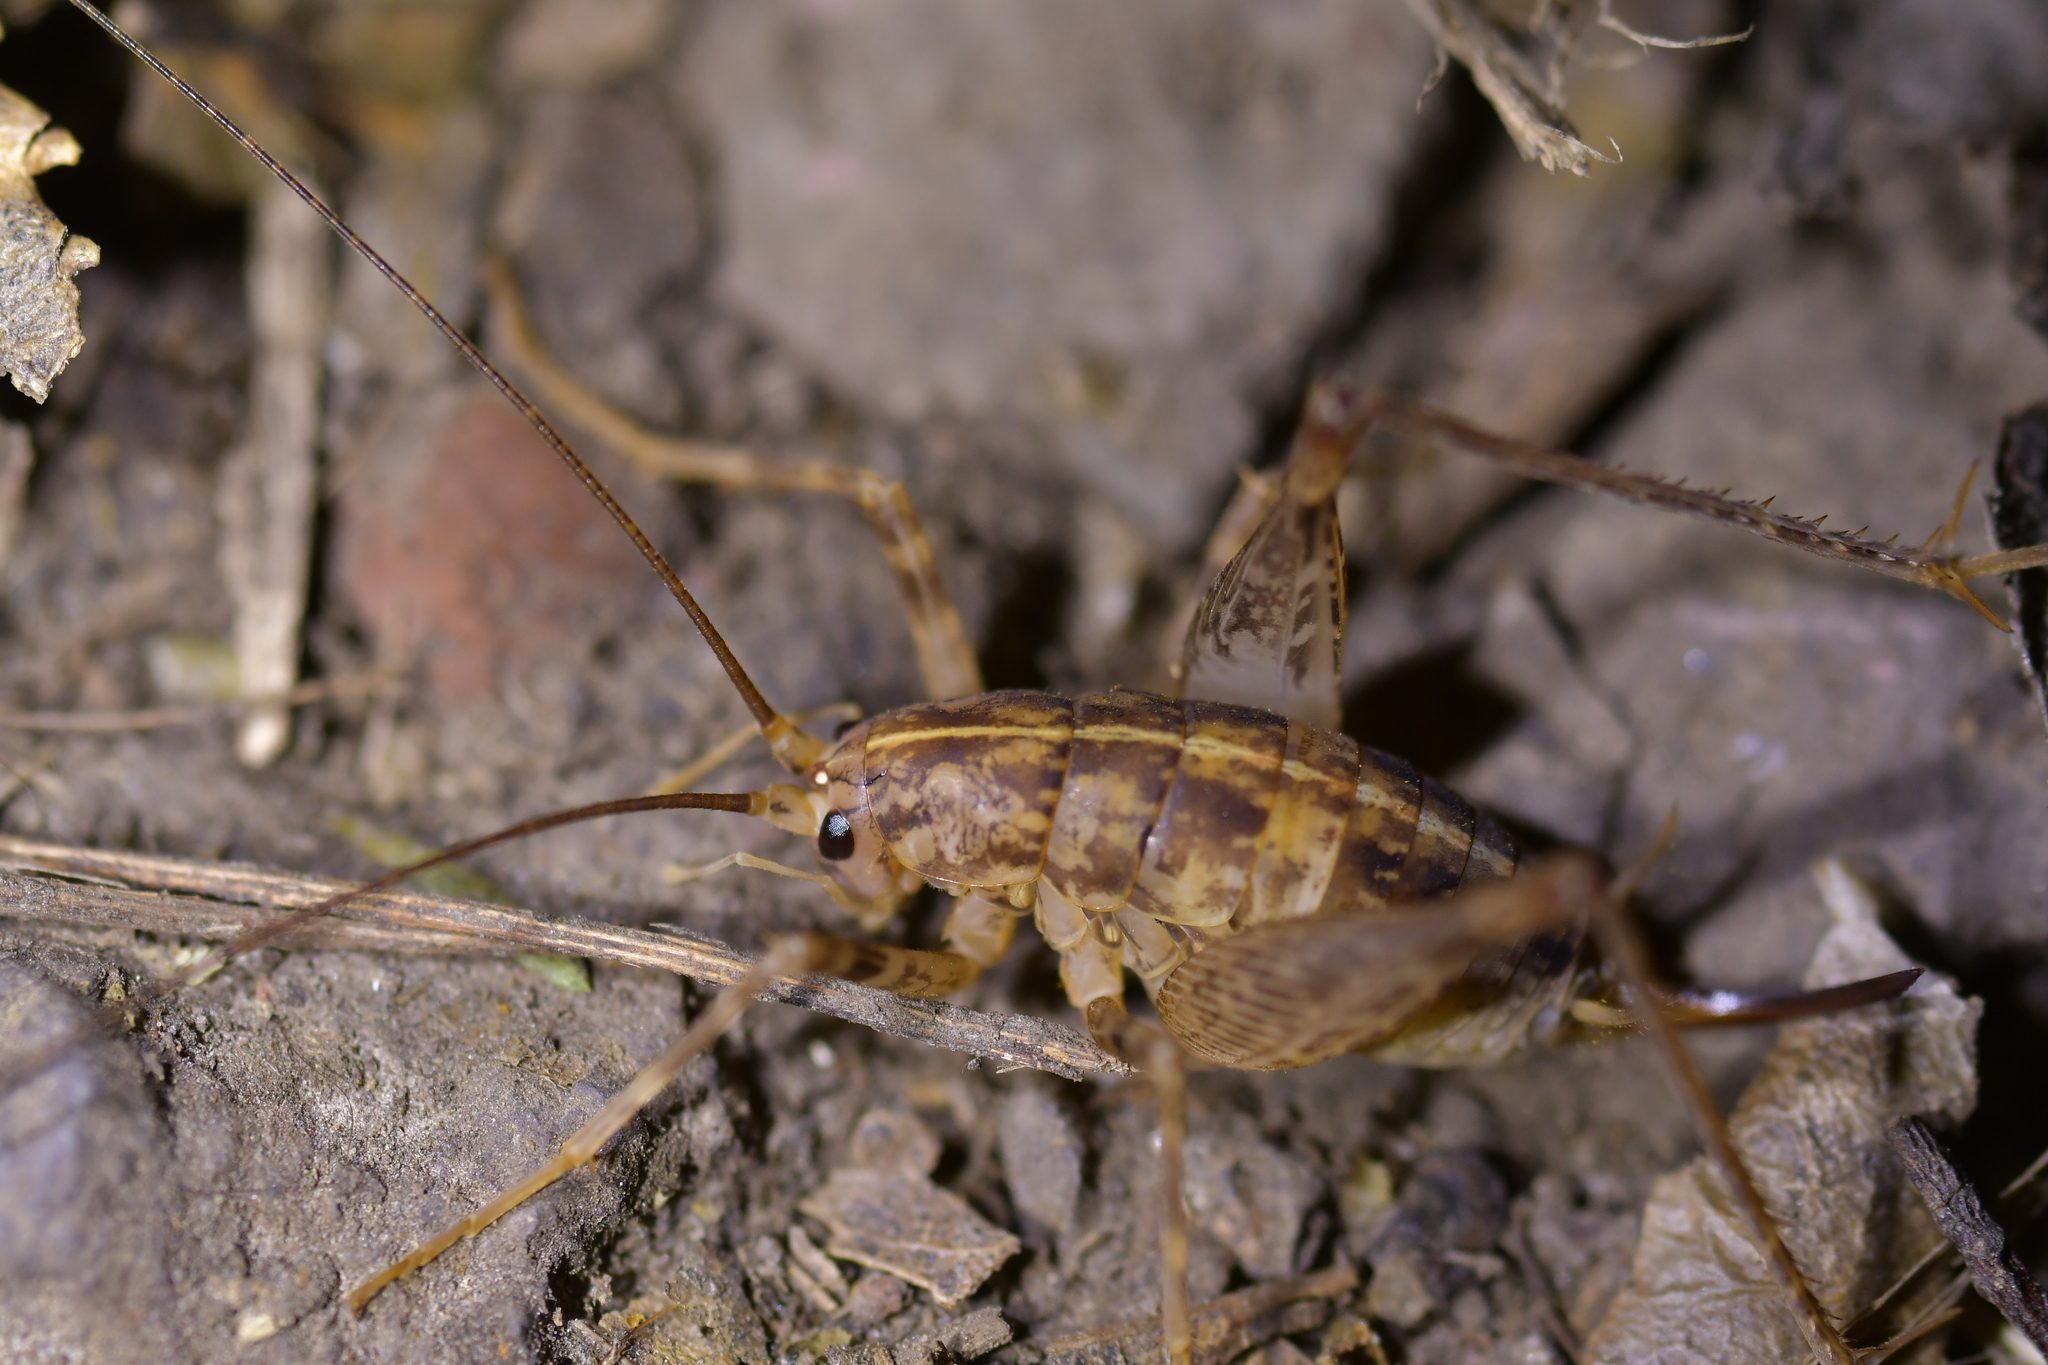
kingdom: Animalia
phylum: Arthropoda
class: Insecta
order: Orthoptera
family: Rhaphidophoridae
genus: Pleioplectron
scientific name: Pleioplectron simplex
